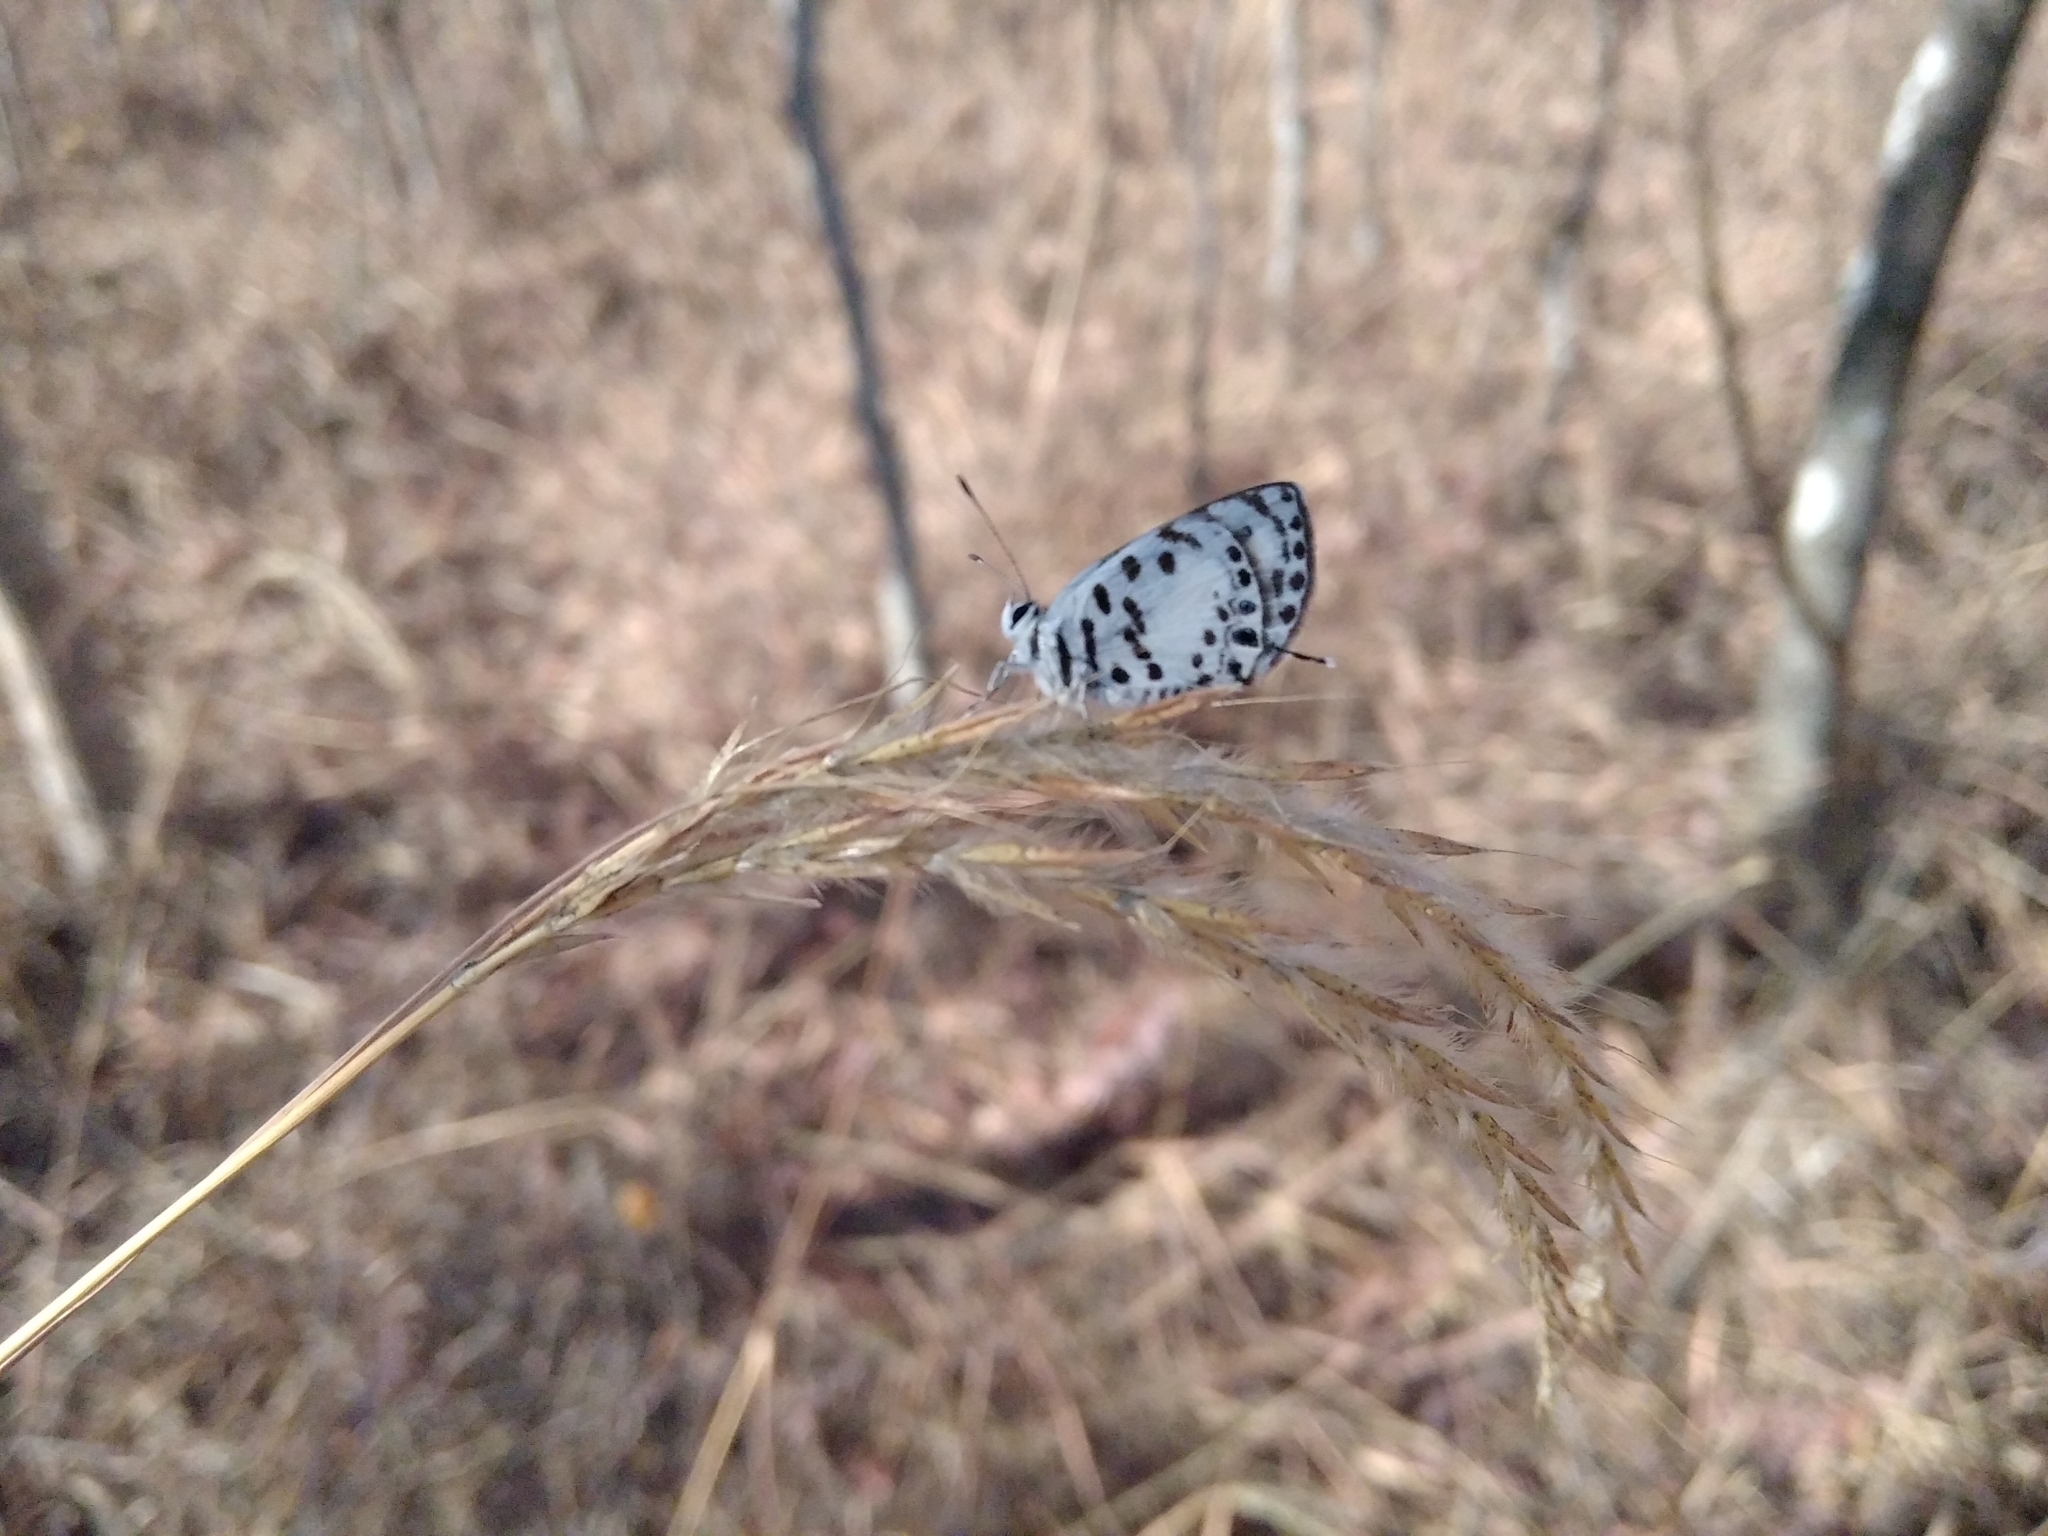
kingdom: Animalia
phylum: Arthropoda
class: Insecta
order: Lepidoptera
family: Lycaenidae
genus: Castalius
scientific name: Castalius melaena
